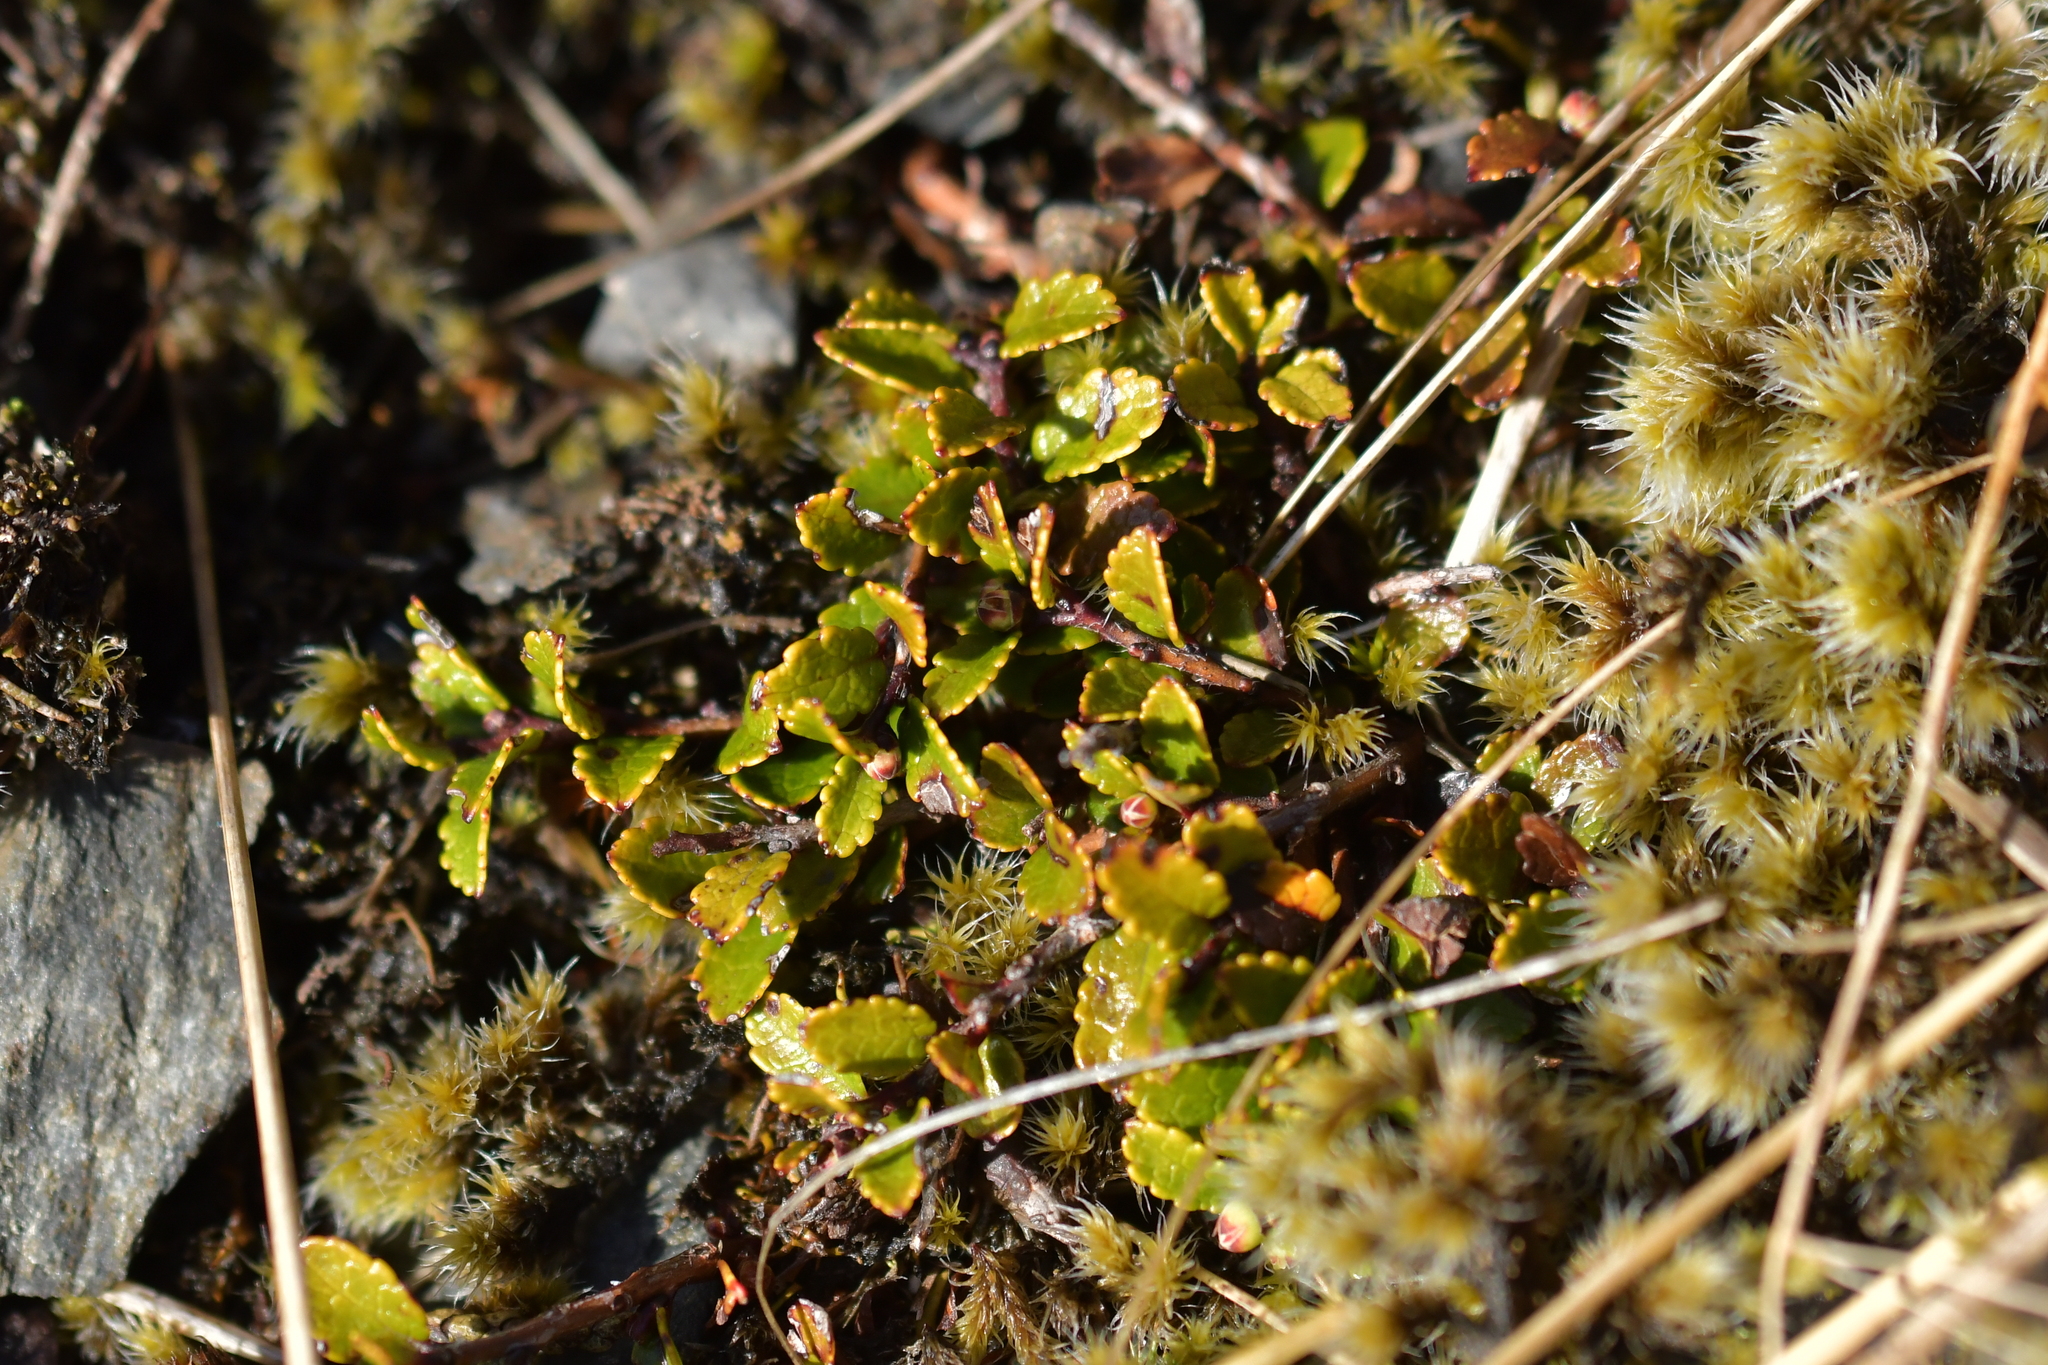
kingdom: Plantae
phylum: Tracheophyta
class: Magnoliopsida
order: Ericales
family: Ericaceae
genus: Gaultheria
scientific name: Gaultheria depressa
